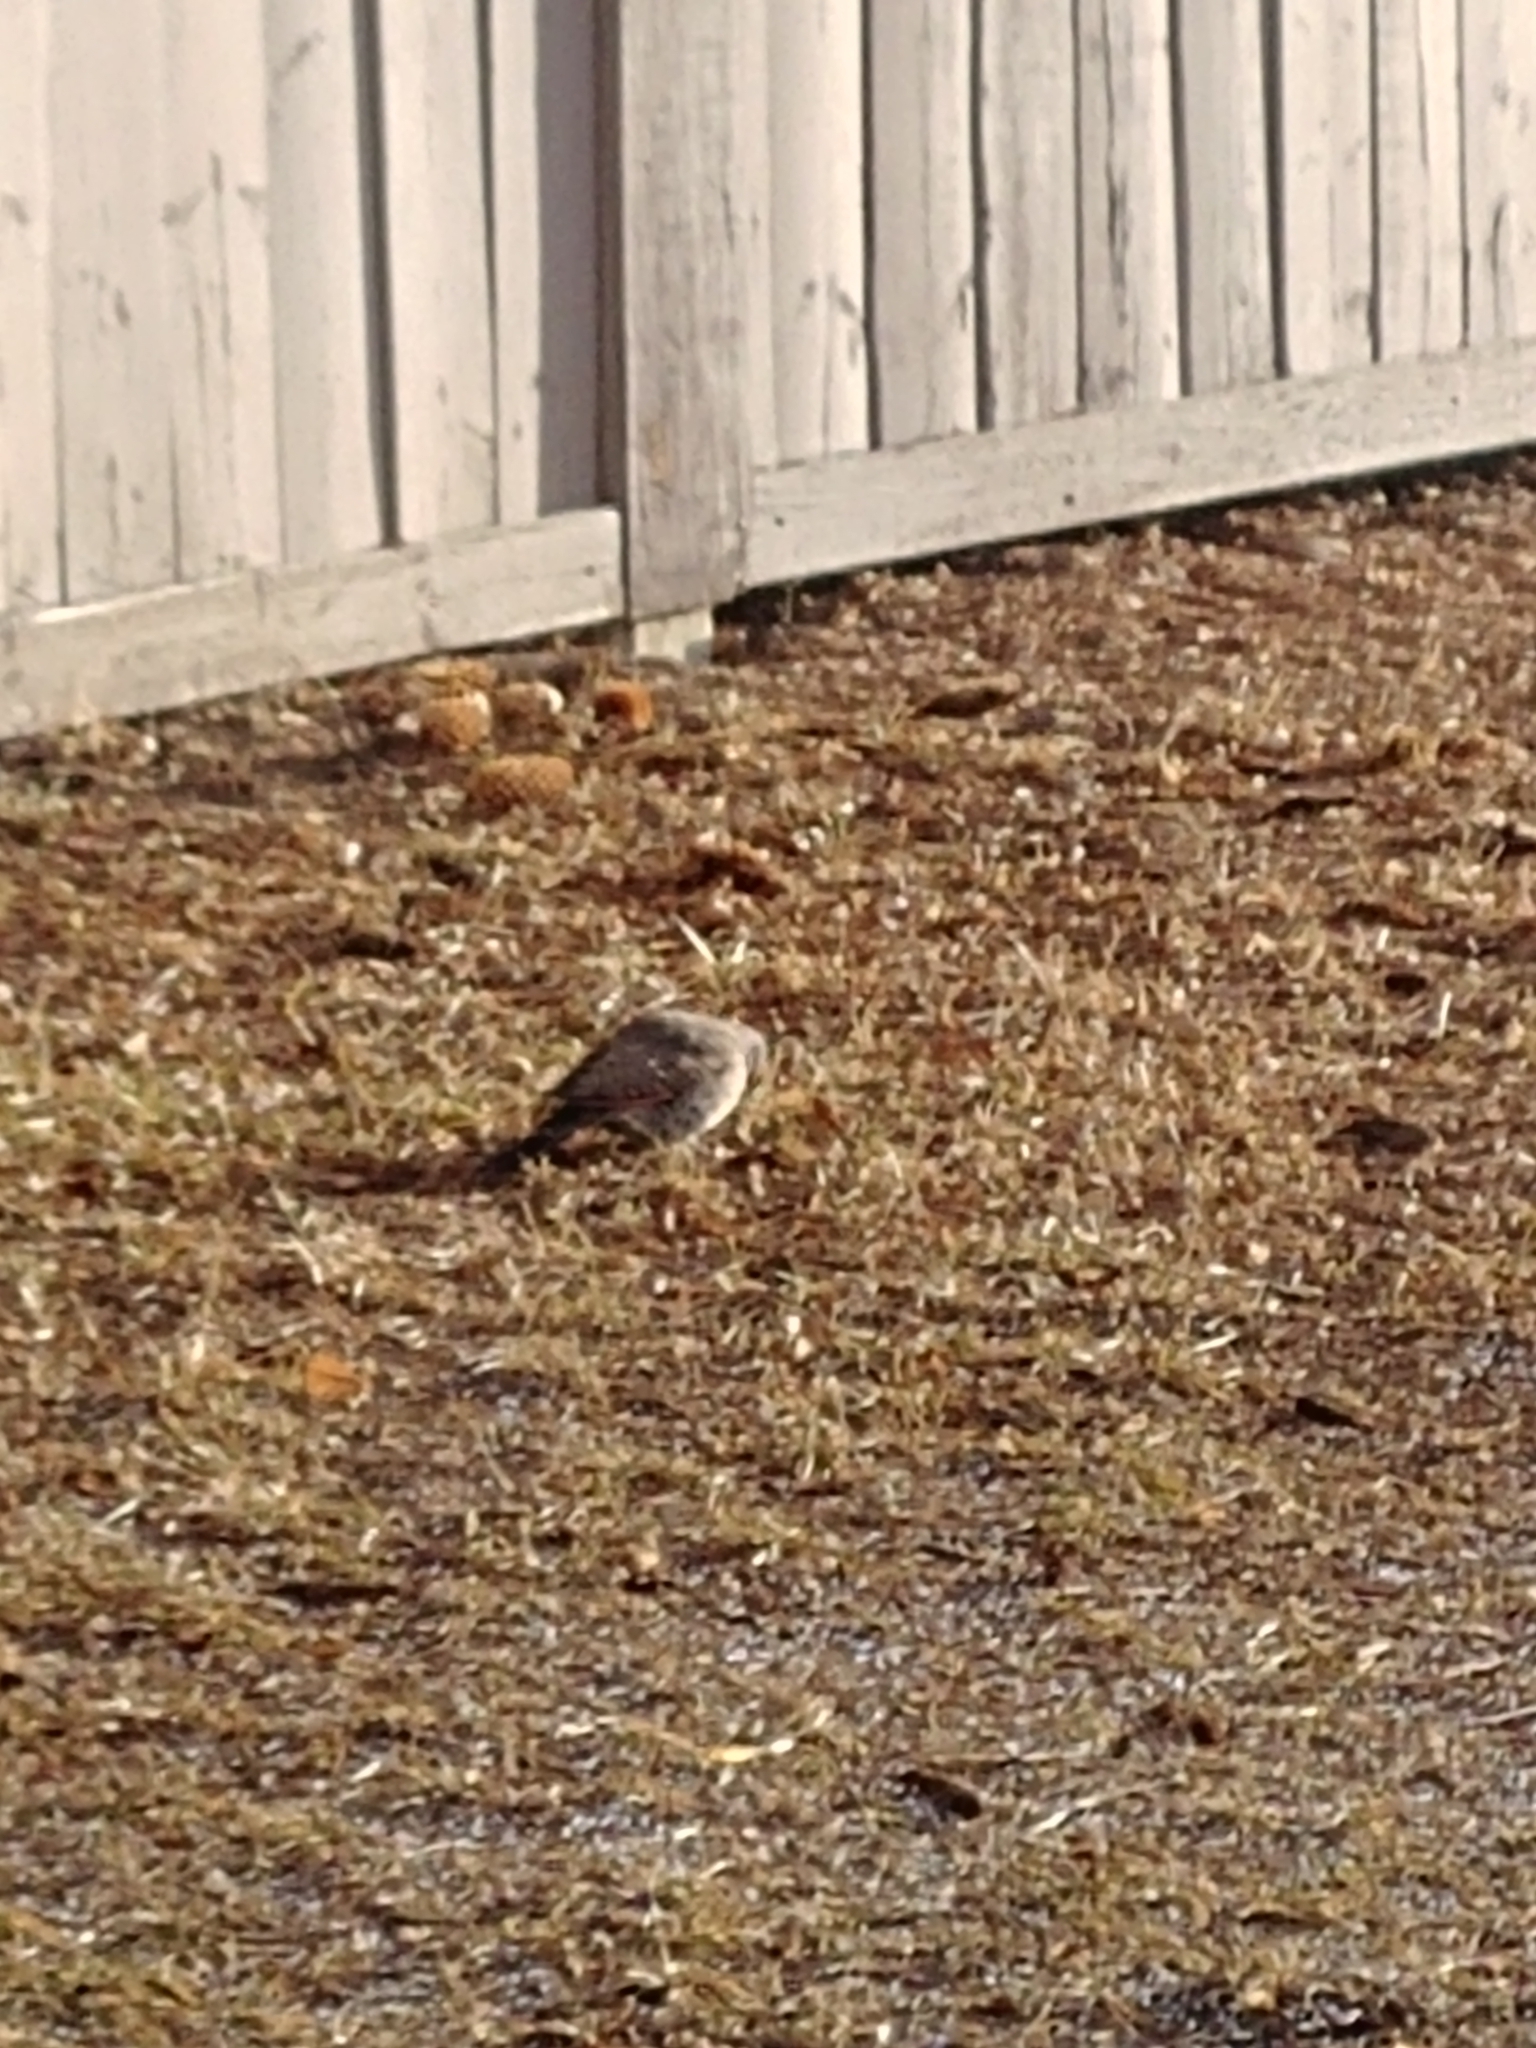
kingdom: Animalia
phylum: Chordata
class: Aves
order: Piciformes
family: Picidae
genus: Colaptes
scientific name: Colaptes auratus
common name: Northern flicker
